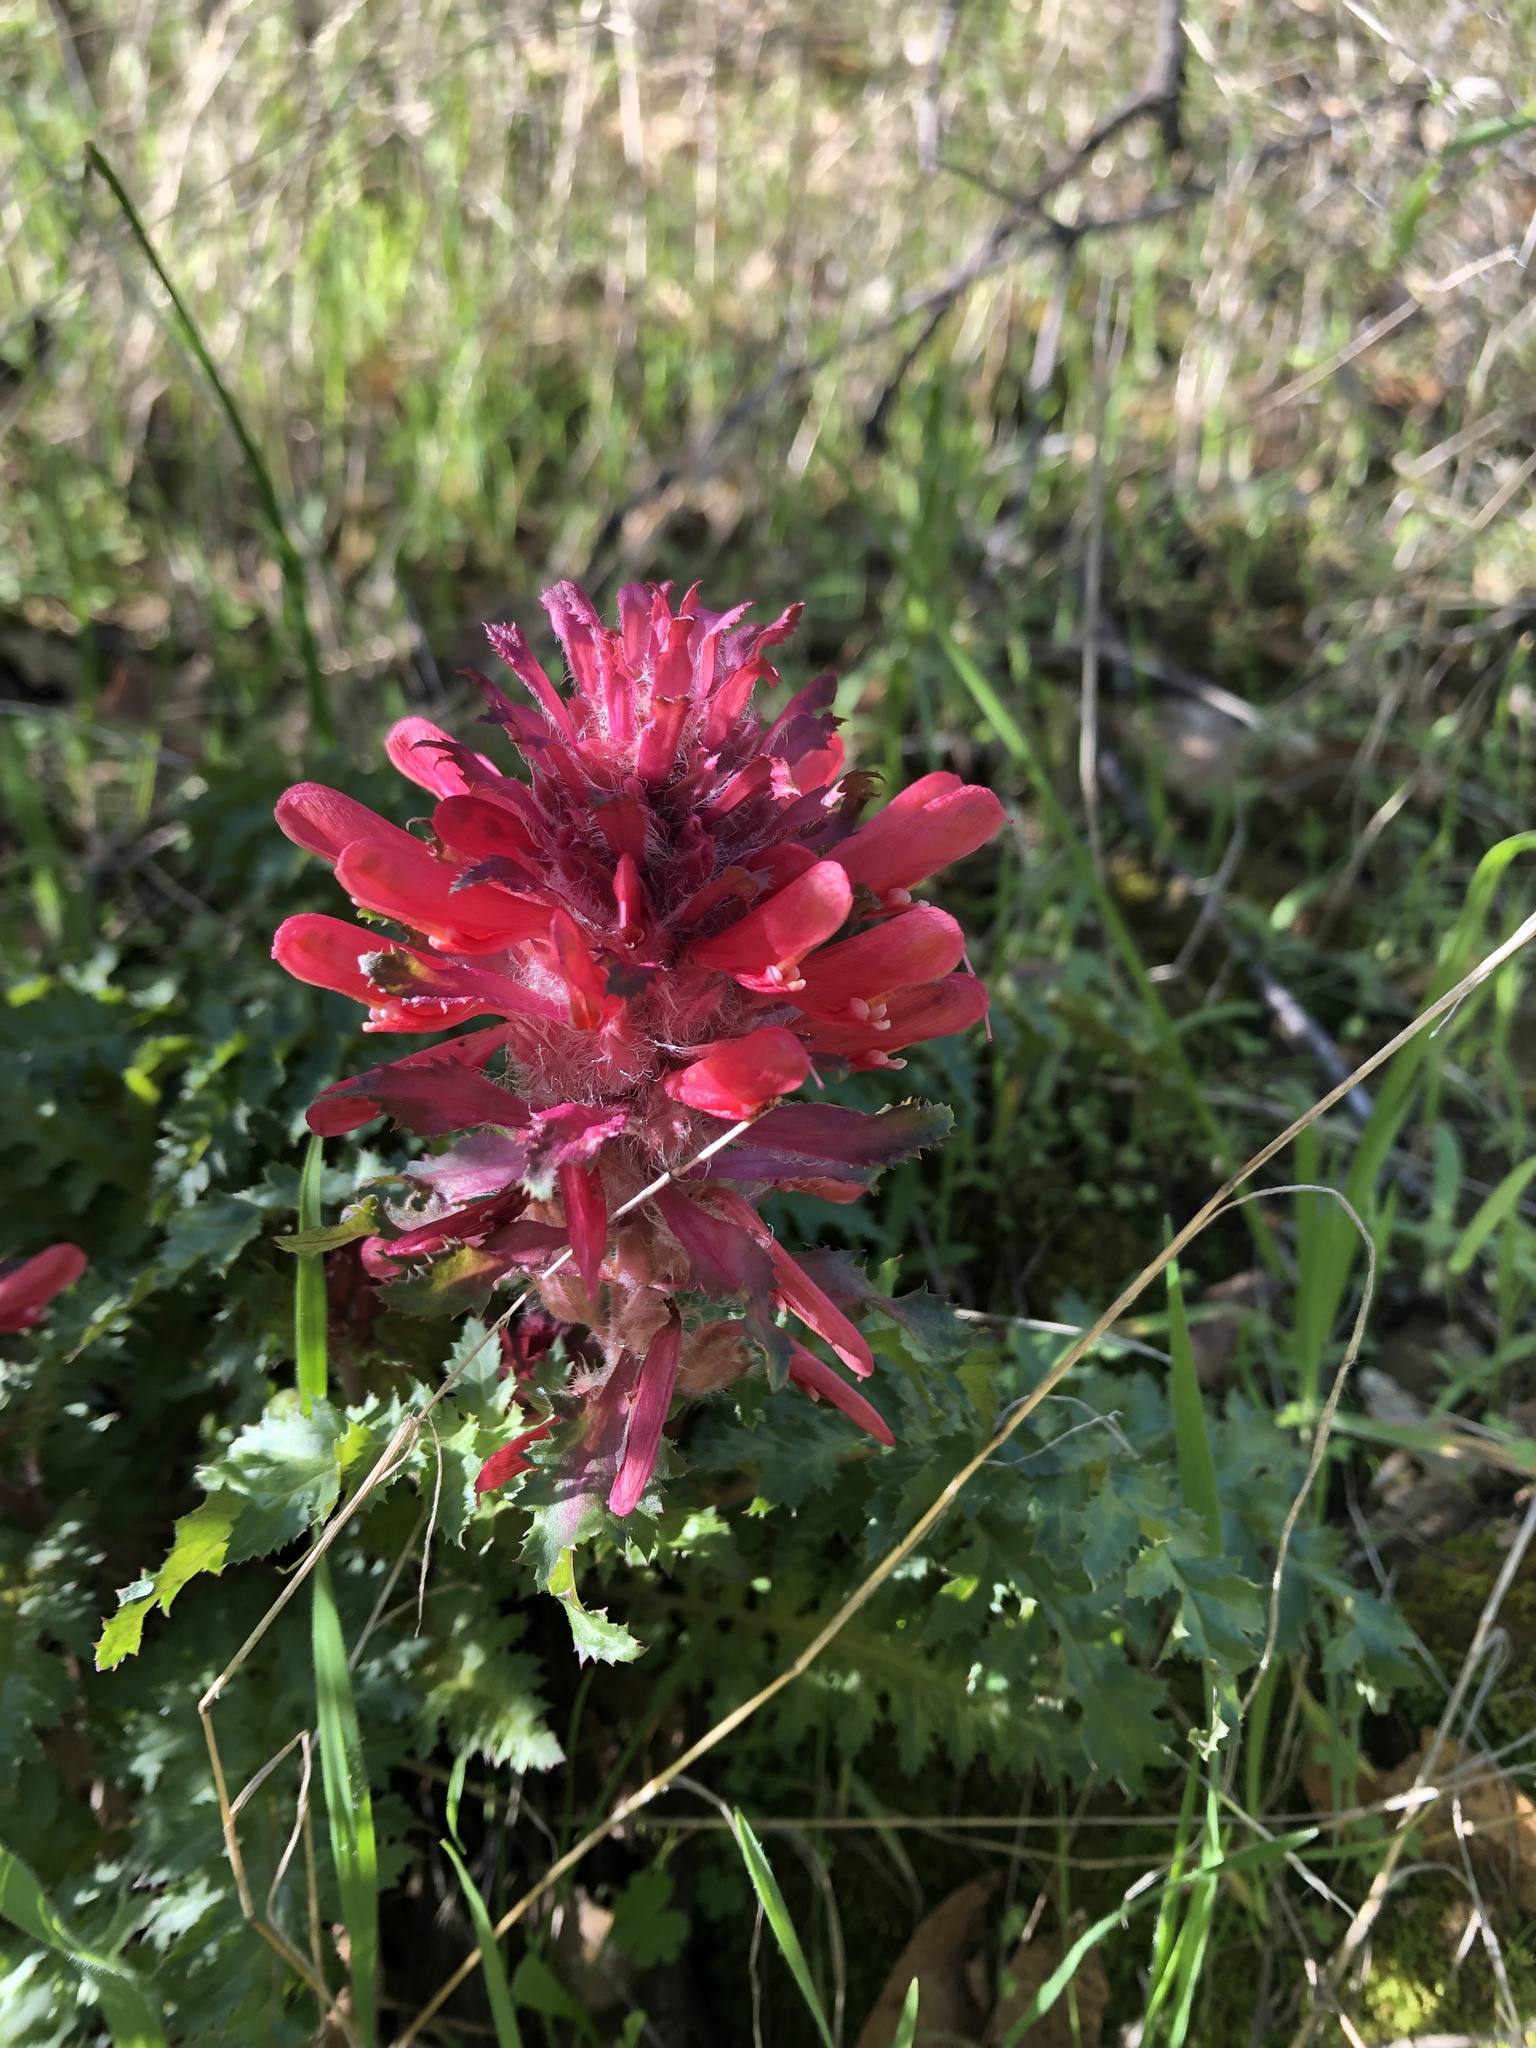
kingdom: Plantae
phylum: Tracheophyta
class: Magnoliopsida
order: Lamiales
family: Orobanchaceae
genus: Pedicularis
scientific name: Pedicularis densiflora
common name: Indian warrior
